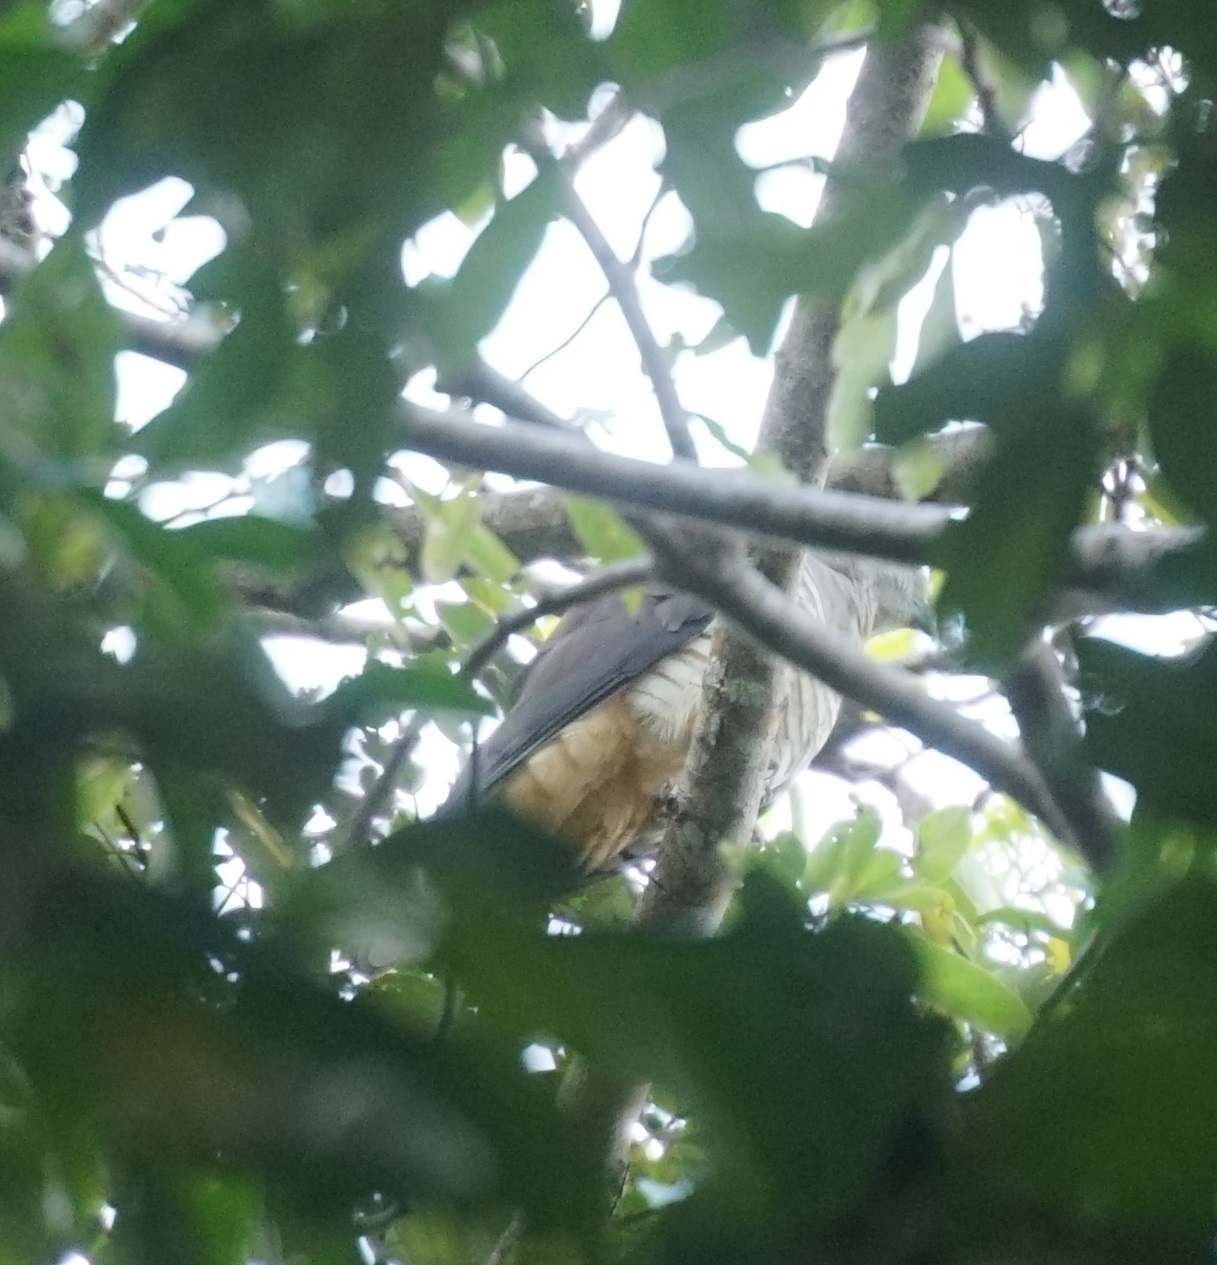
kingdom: Animalia
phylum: Chordata
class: Aves
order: Accipitriformes
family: Accipitridae
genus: Aviceda
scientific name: Aviceda subcristata
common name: Pacific baza
